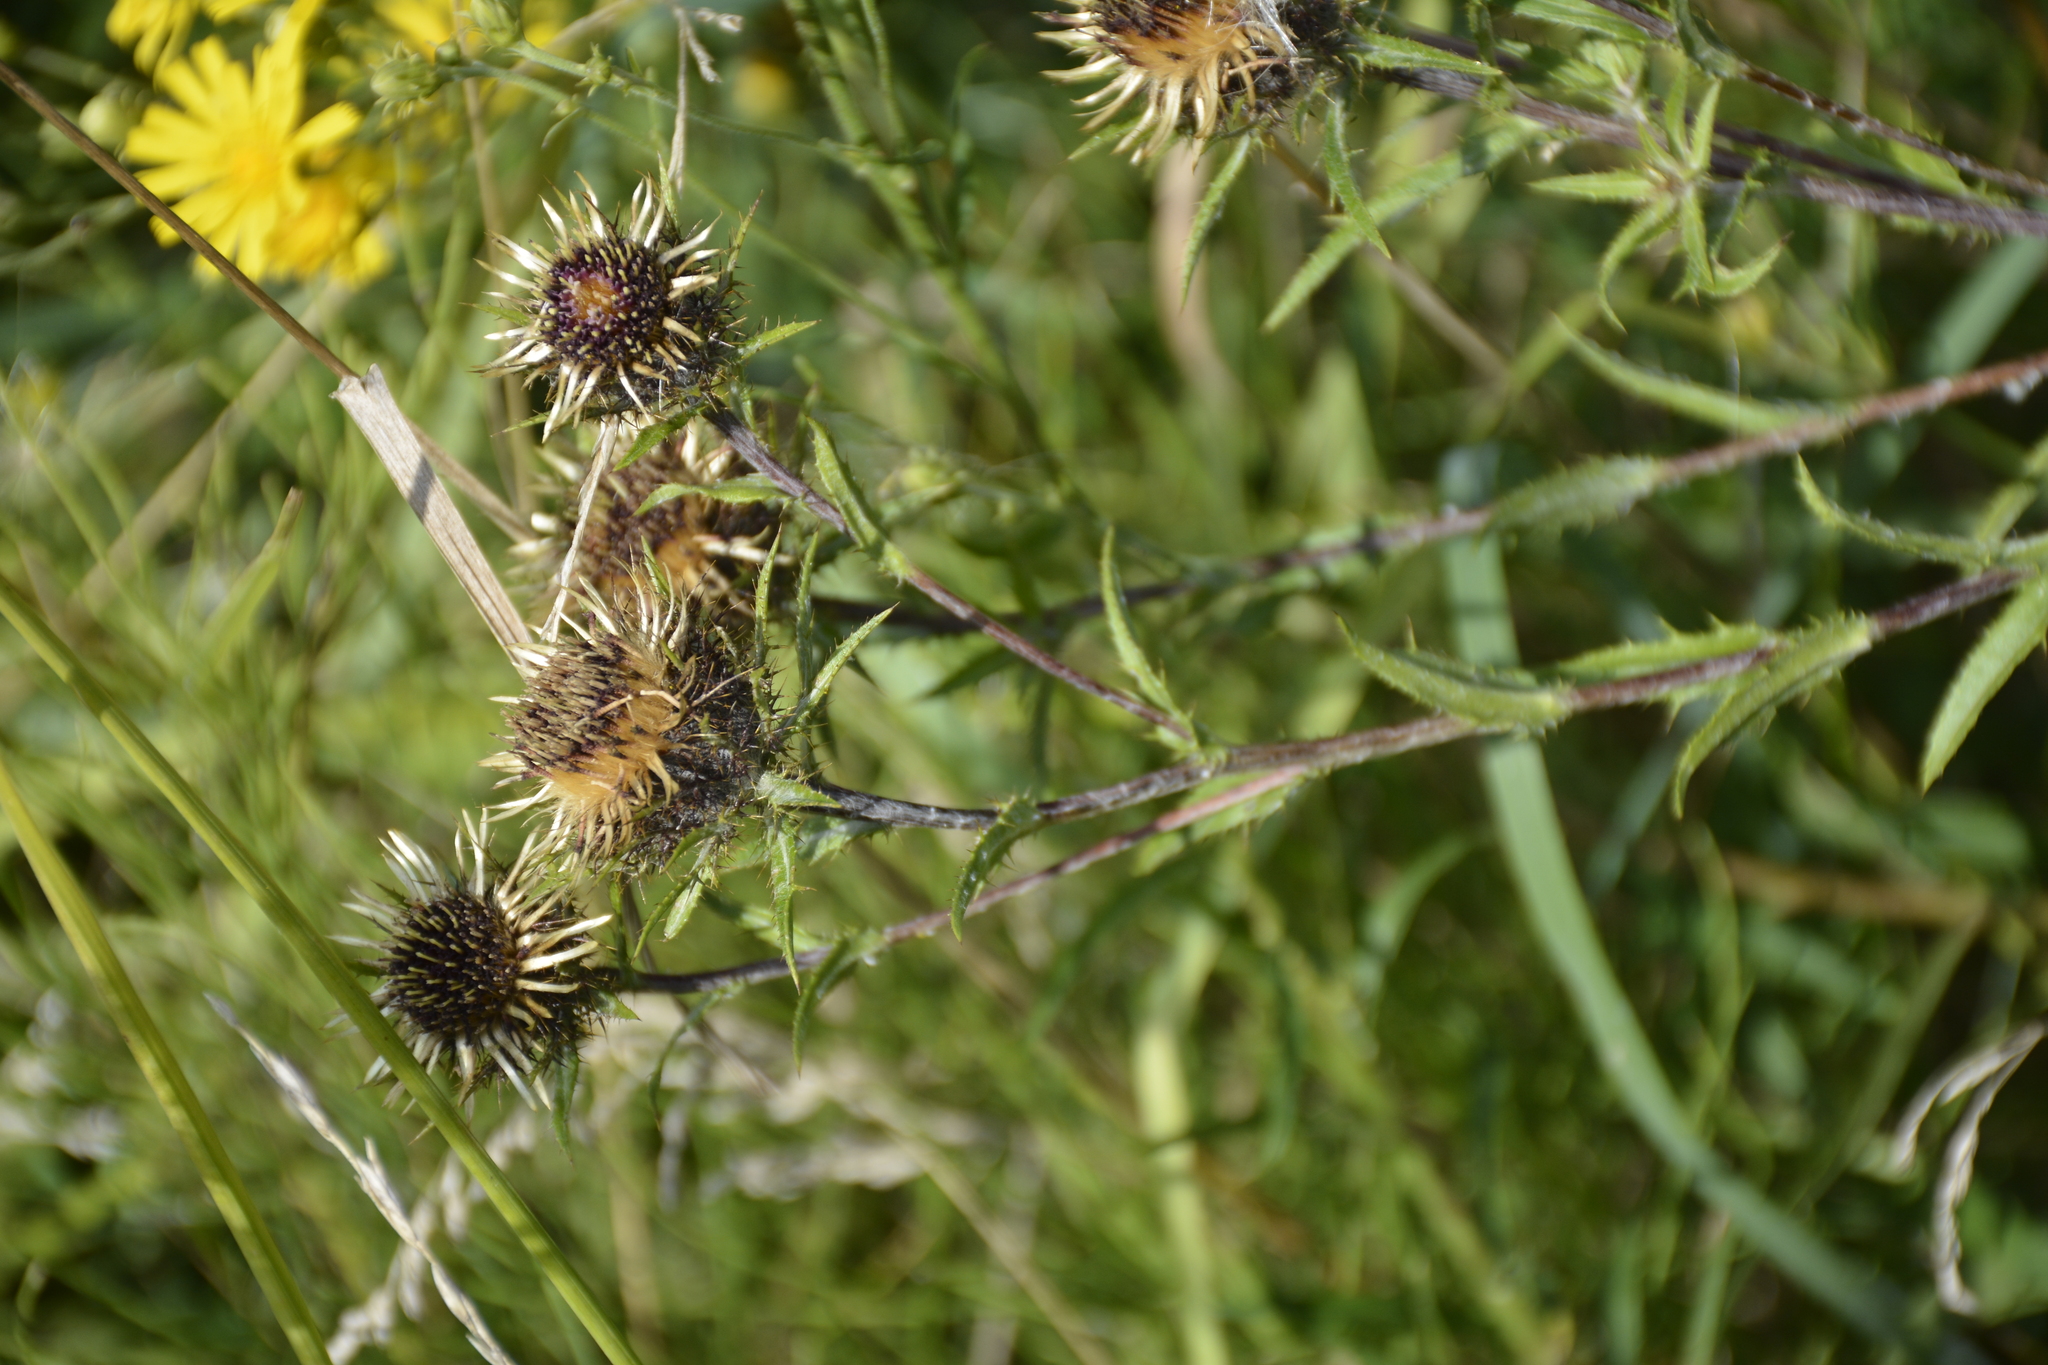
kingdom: Plantae
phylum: Tracheophyta
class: Magnoliopsida
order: Asterales
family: Asteraceae
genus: Carlina
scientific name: Carlina biebersteinii
